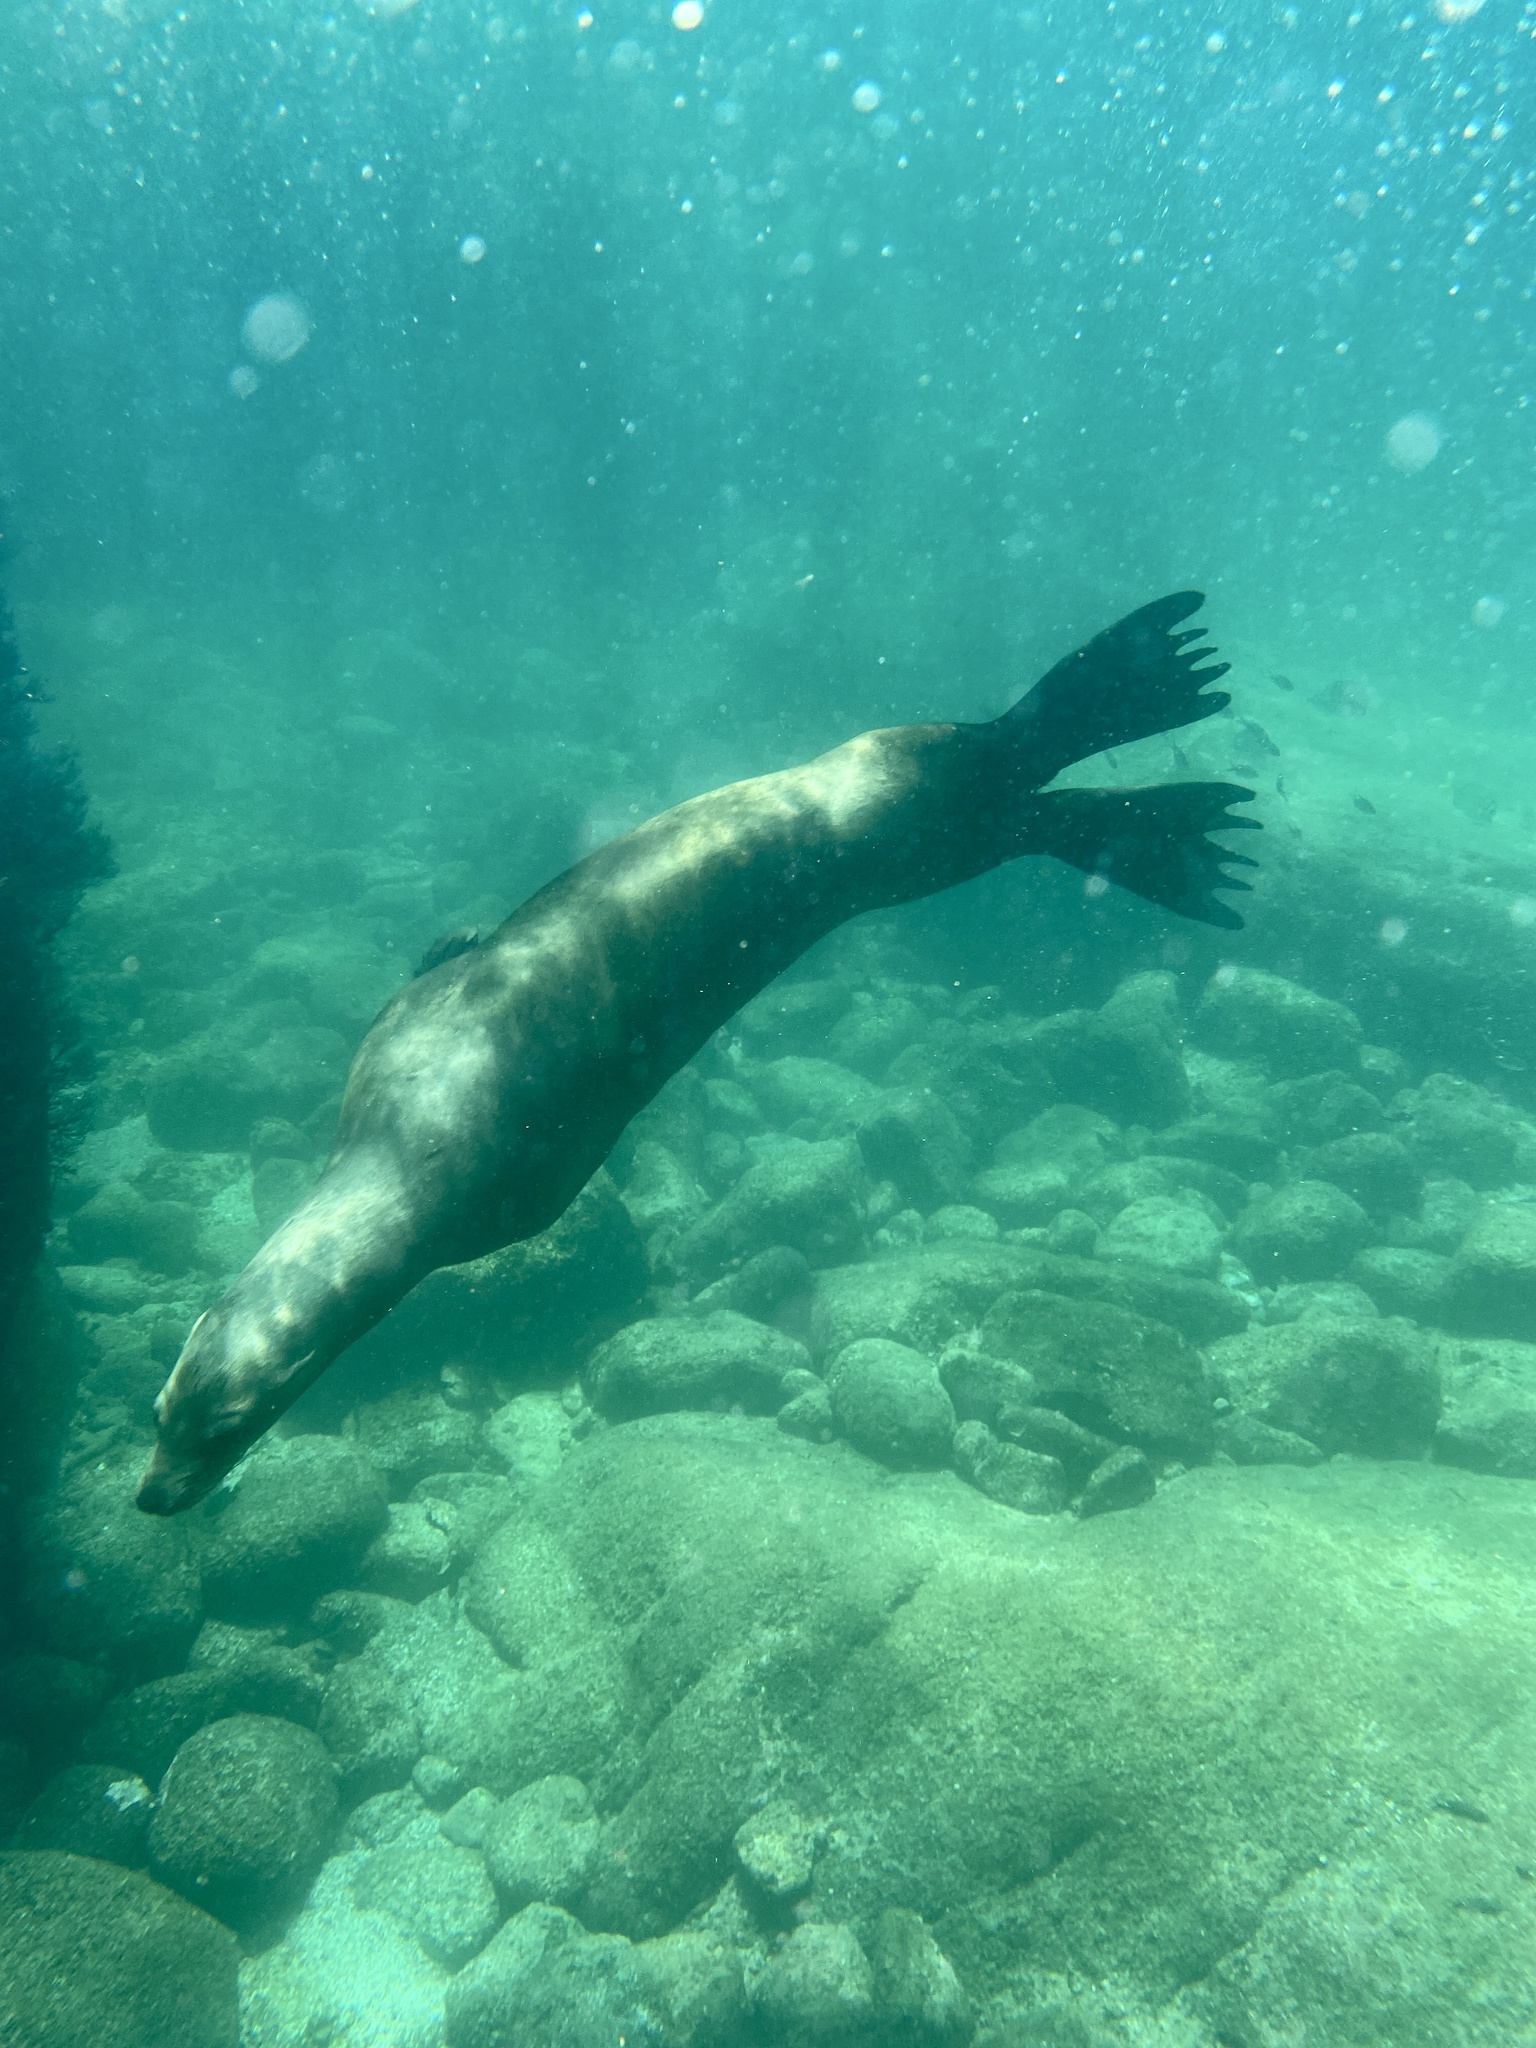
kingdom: Animalia
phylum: Chordata
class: Mammalia
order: Carnivora
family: Otariidae
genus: Zalophus
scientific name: Zalophus californianus
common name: California sea lion
